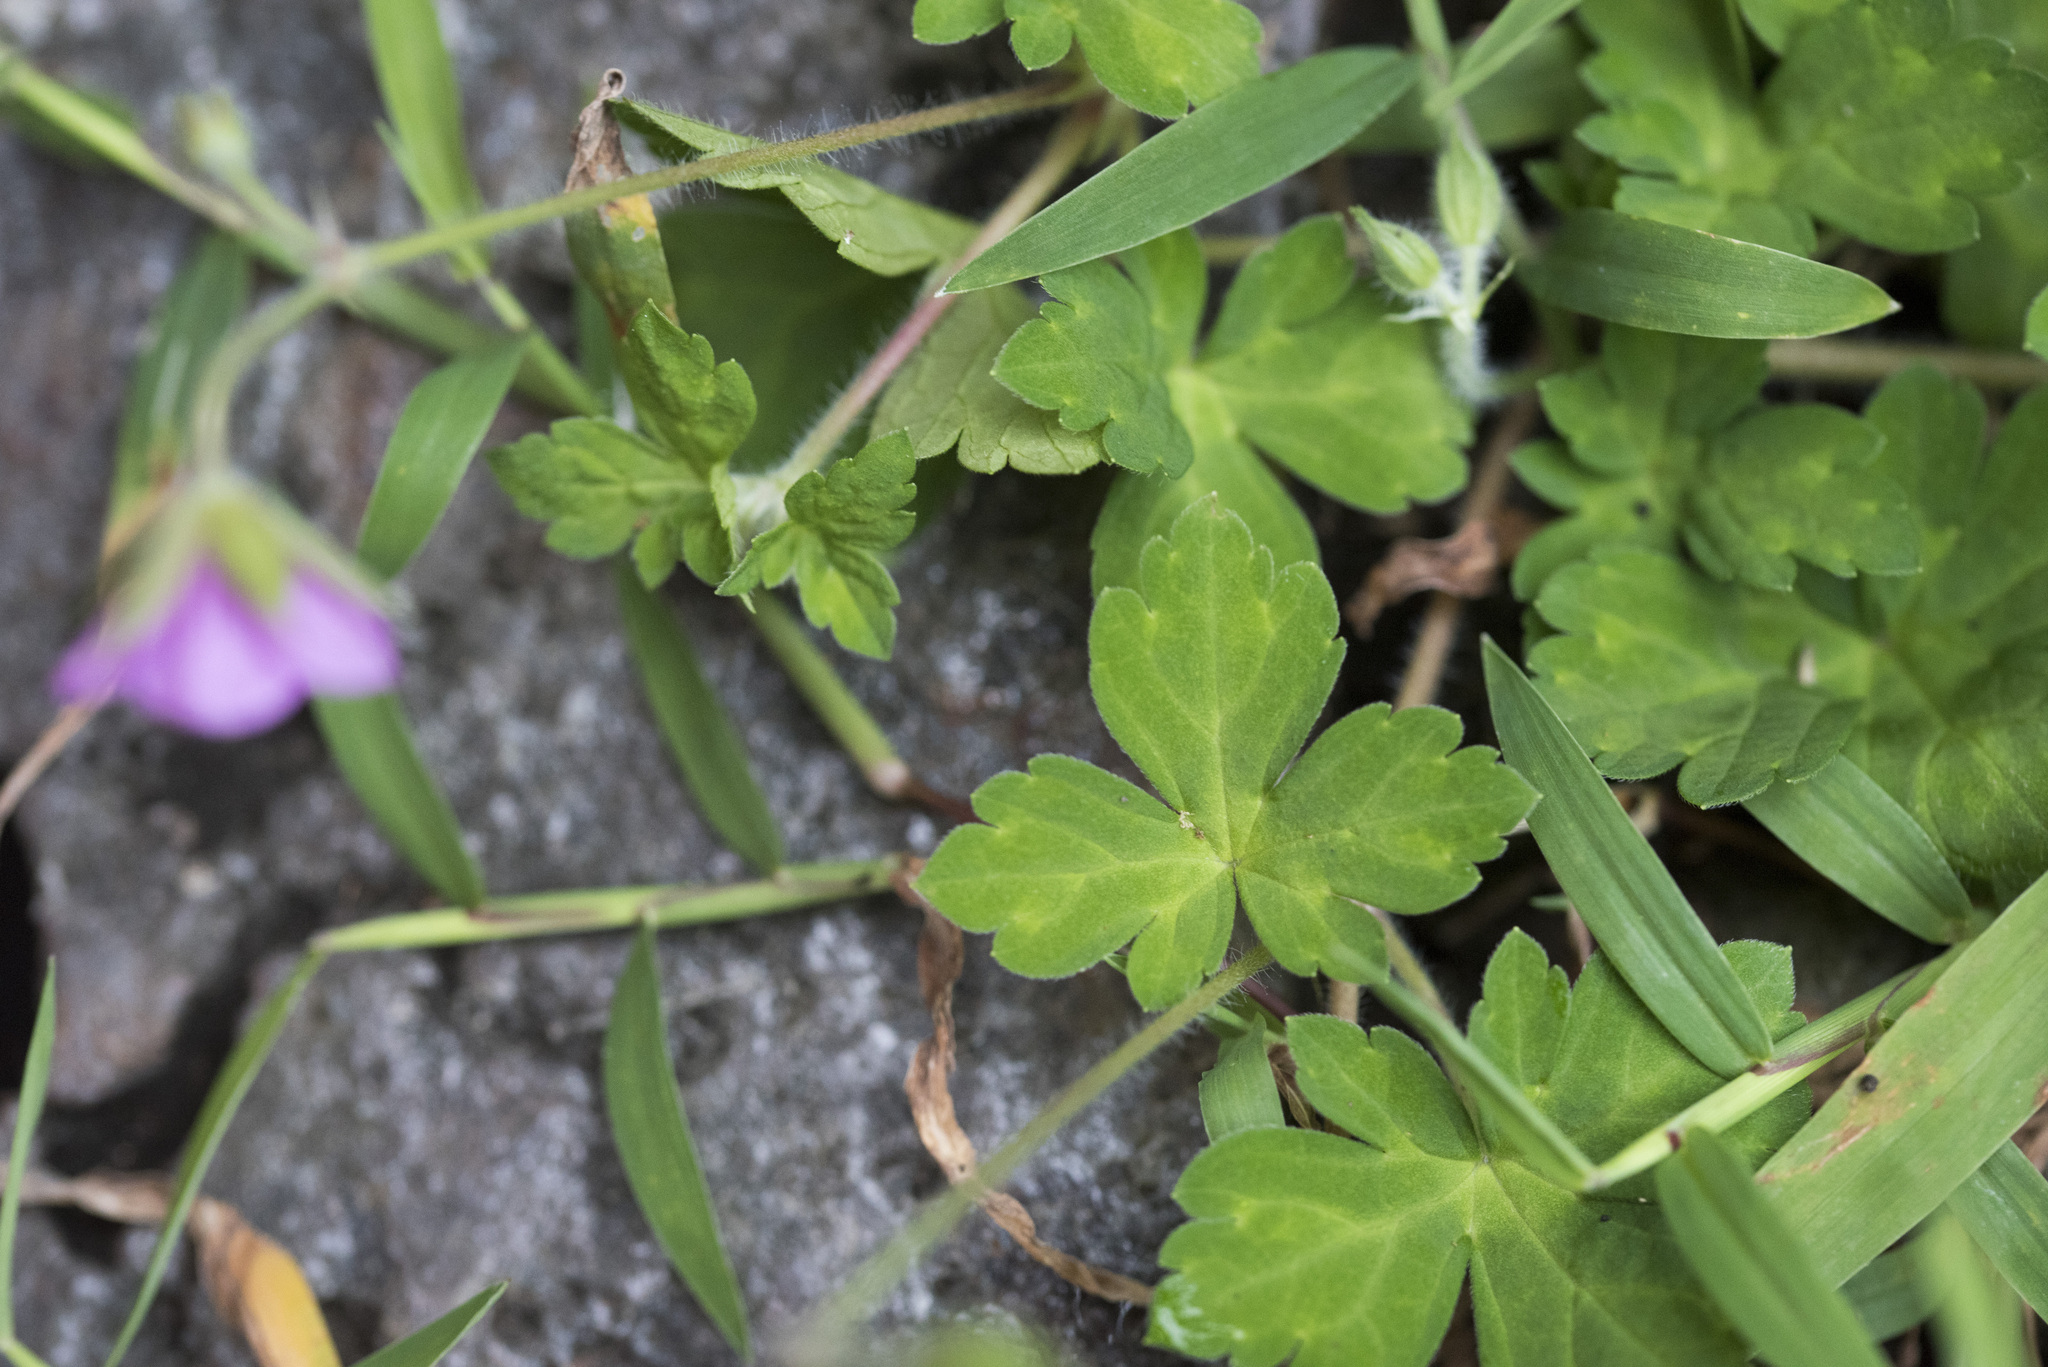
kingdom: Plantae
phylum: Tracheophyta
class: Magnoliopsida
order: Geraniales
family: Geraniaceae
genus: Geranium
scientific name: Geranium thunbergii
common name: Dewdrop crane's-bill
